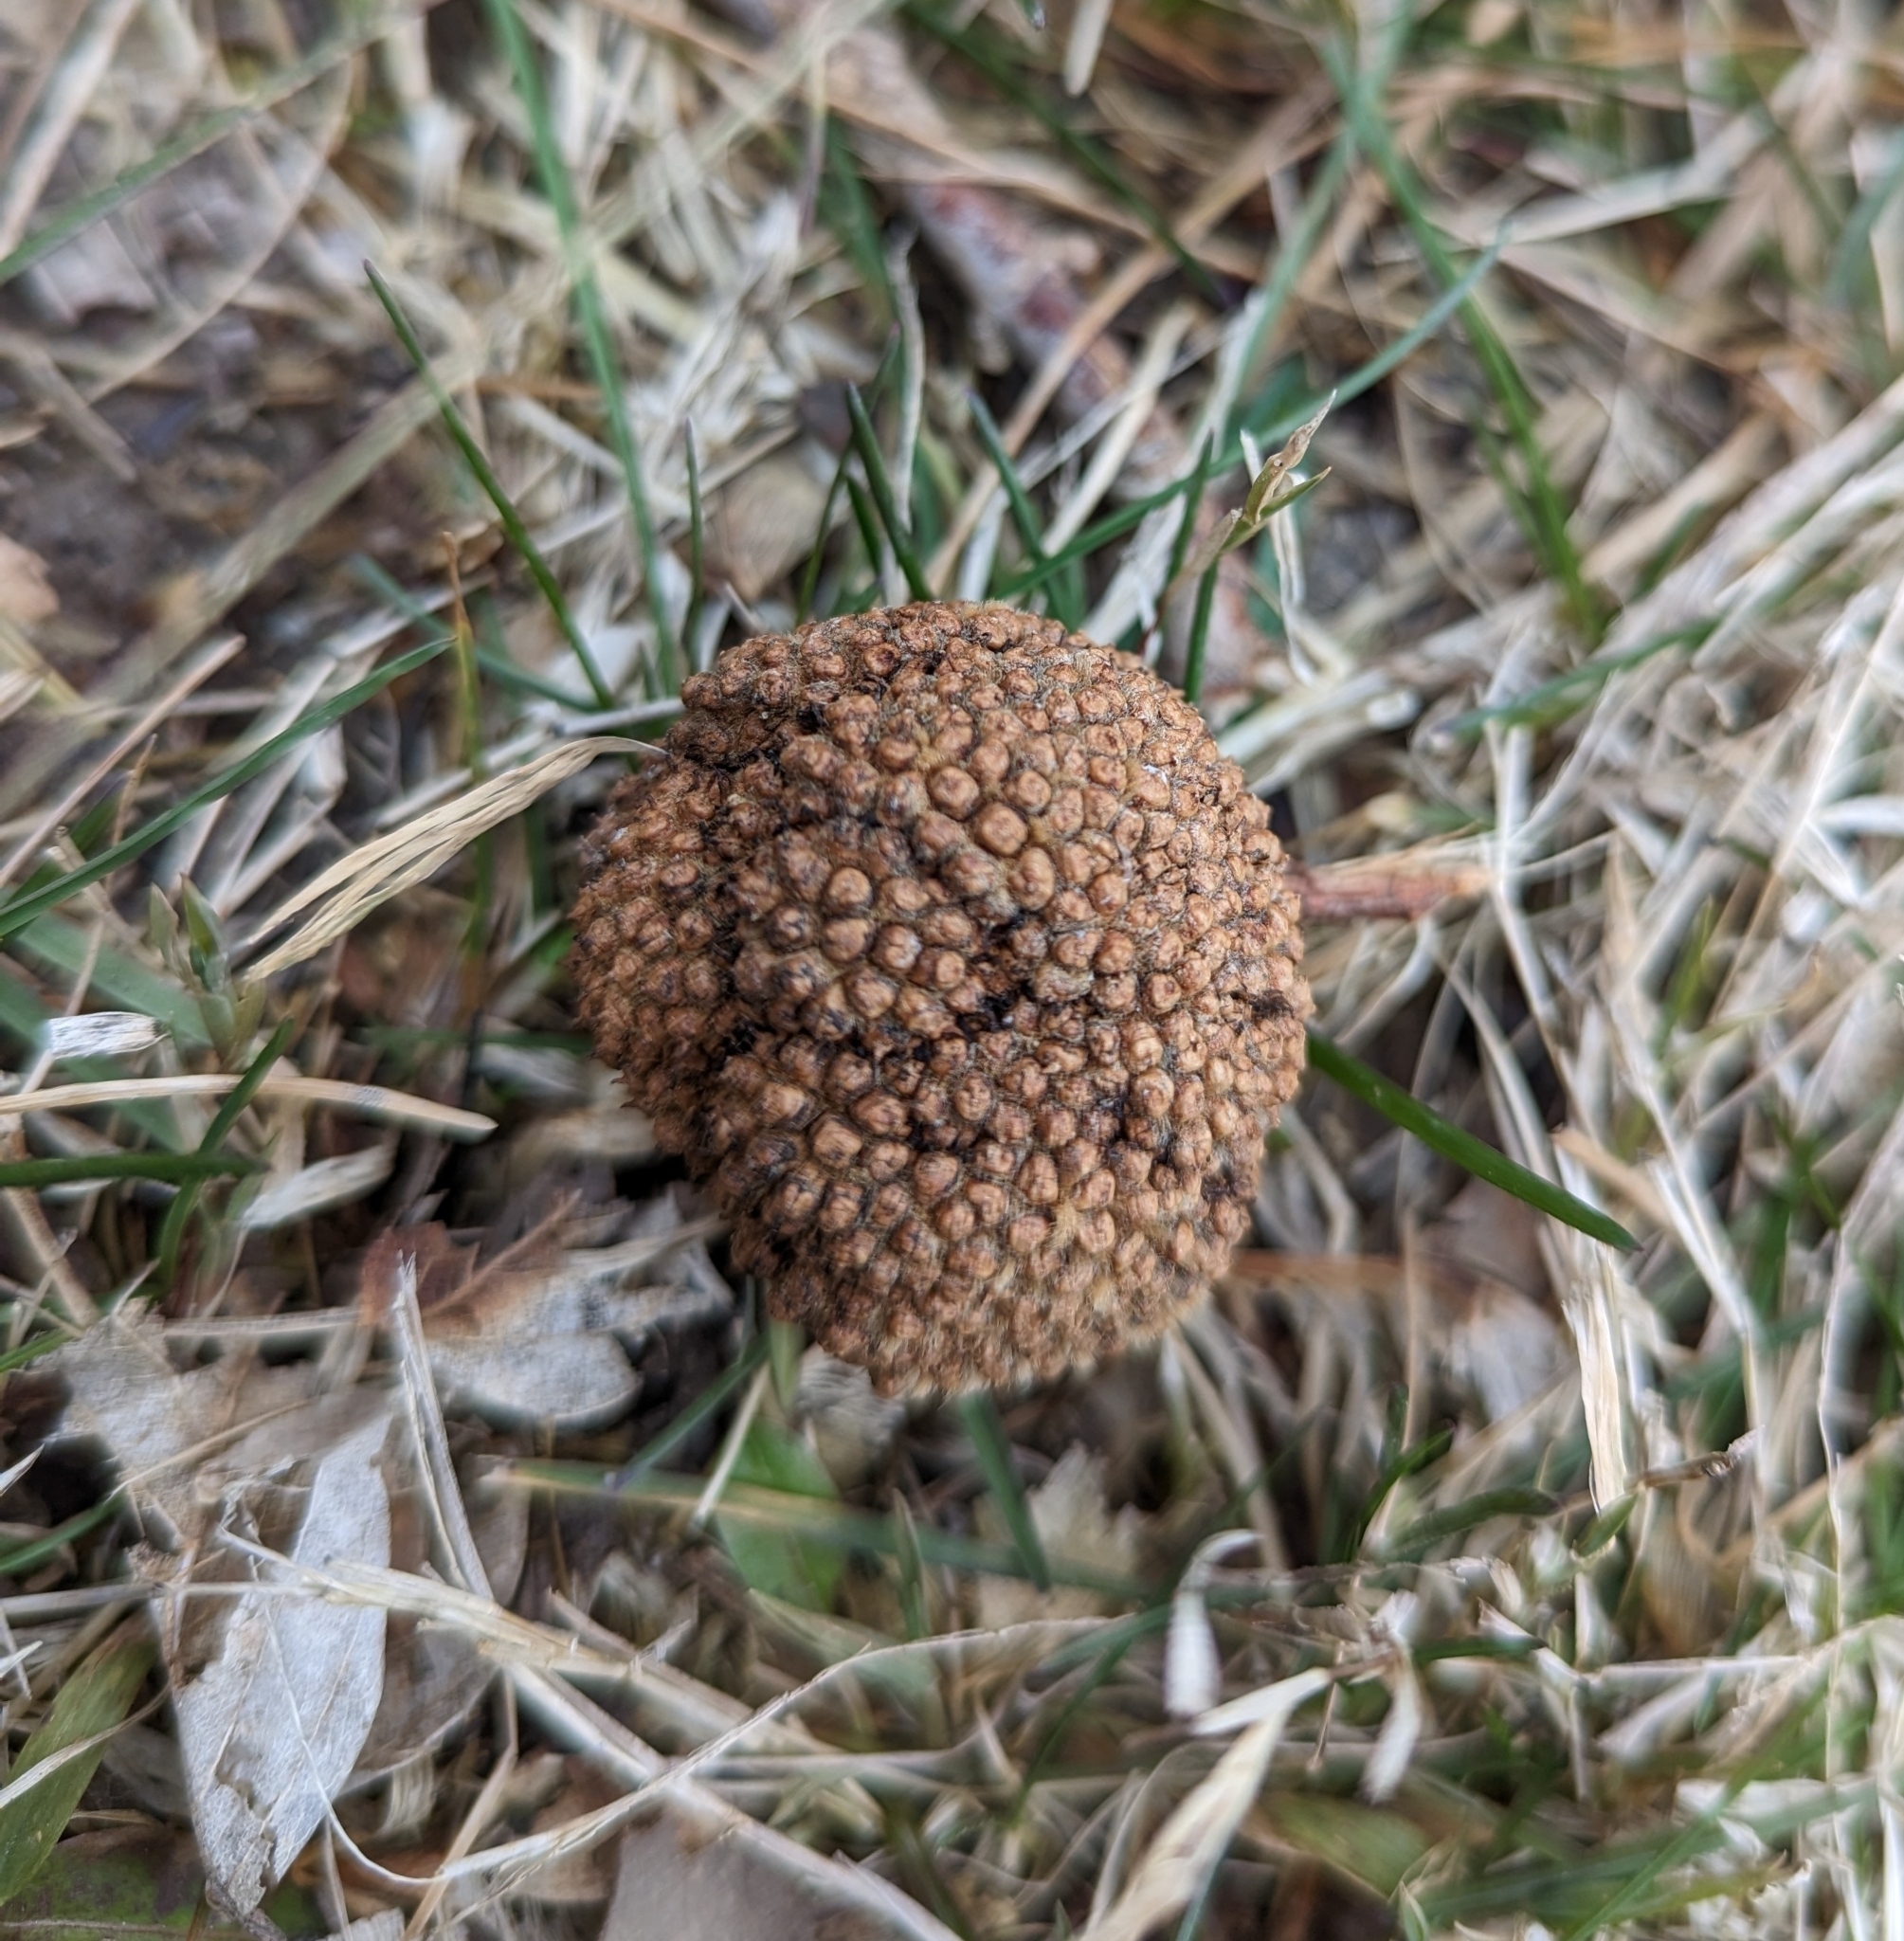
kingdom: Plantae
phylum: Tracheophyta
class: Magnoliopsida
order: Proteales
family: Platanaceae
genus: Platanus
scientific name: Platanus occidentalis
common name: American sycamore
